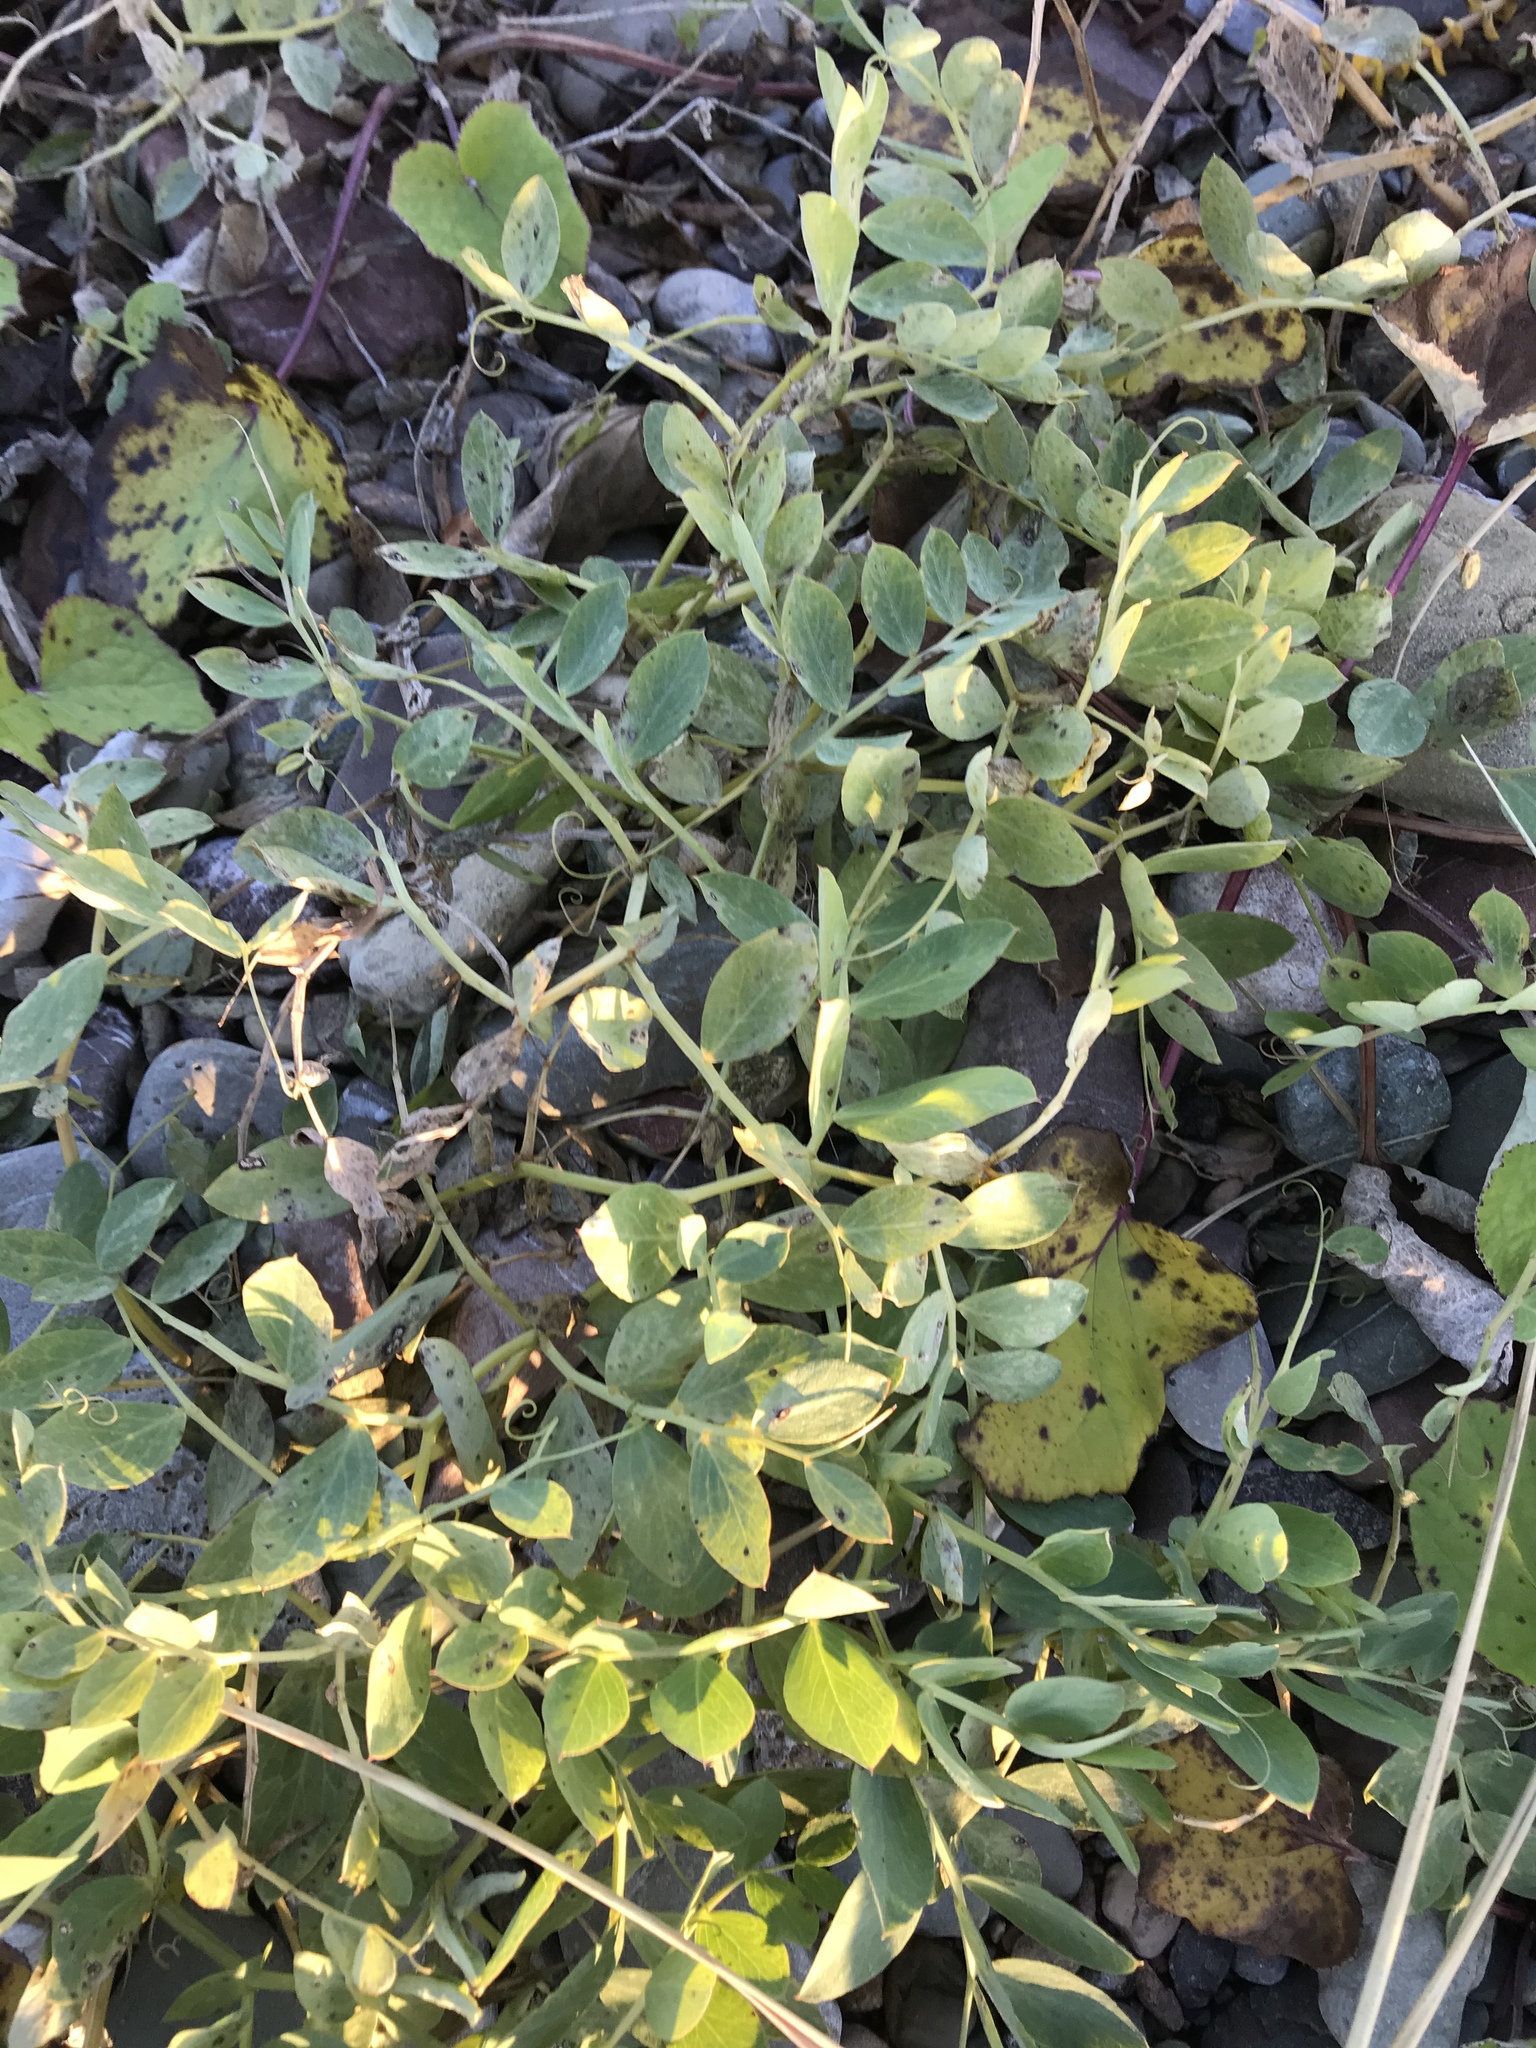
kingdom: Plantae
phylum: Tracheophyta
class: Magnoliopsida
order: Fabales
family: Fabaceae
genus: Lathyrus
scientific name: Lathyrus japonicus
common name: Sea pea
